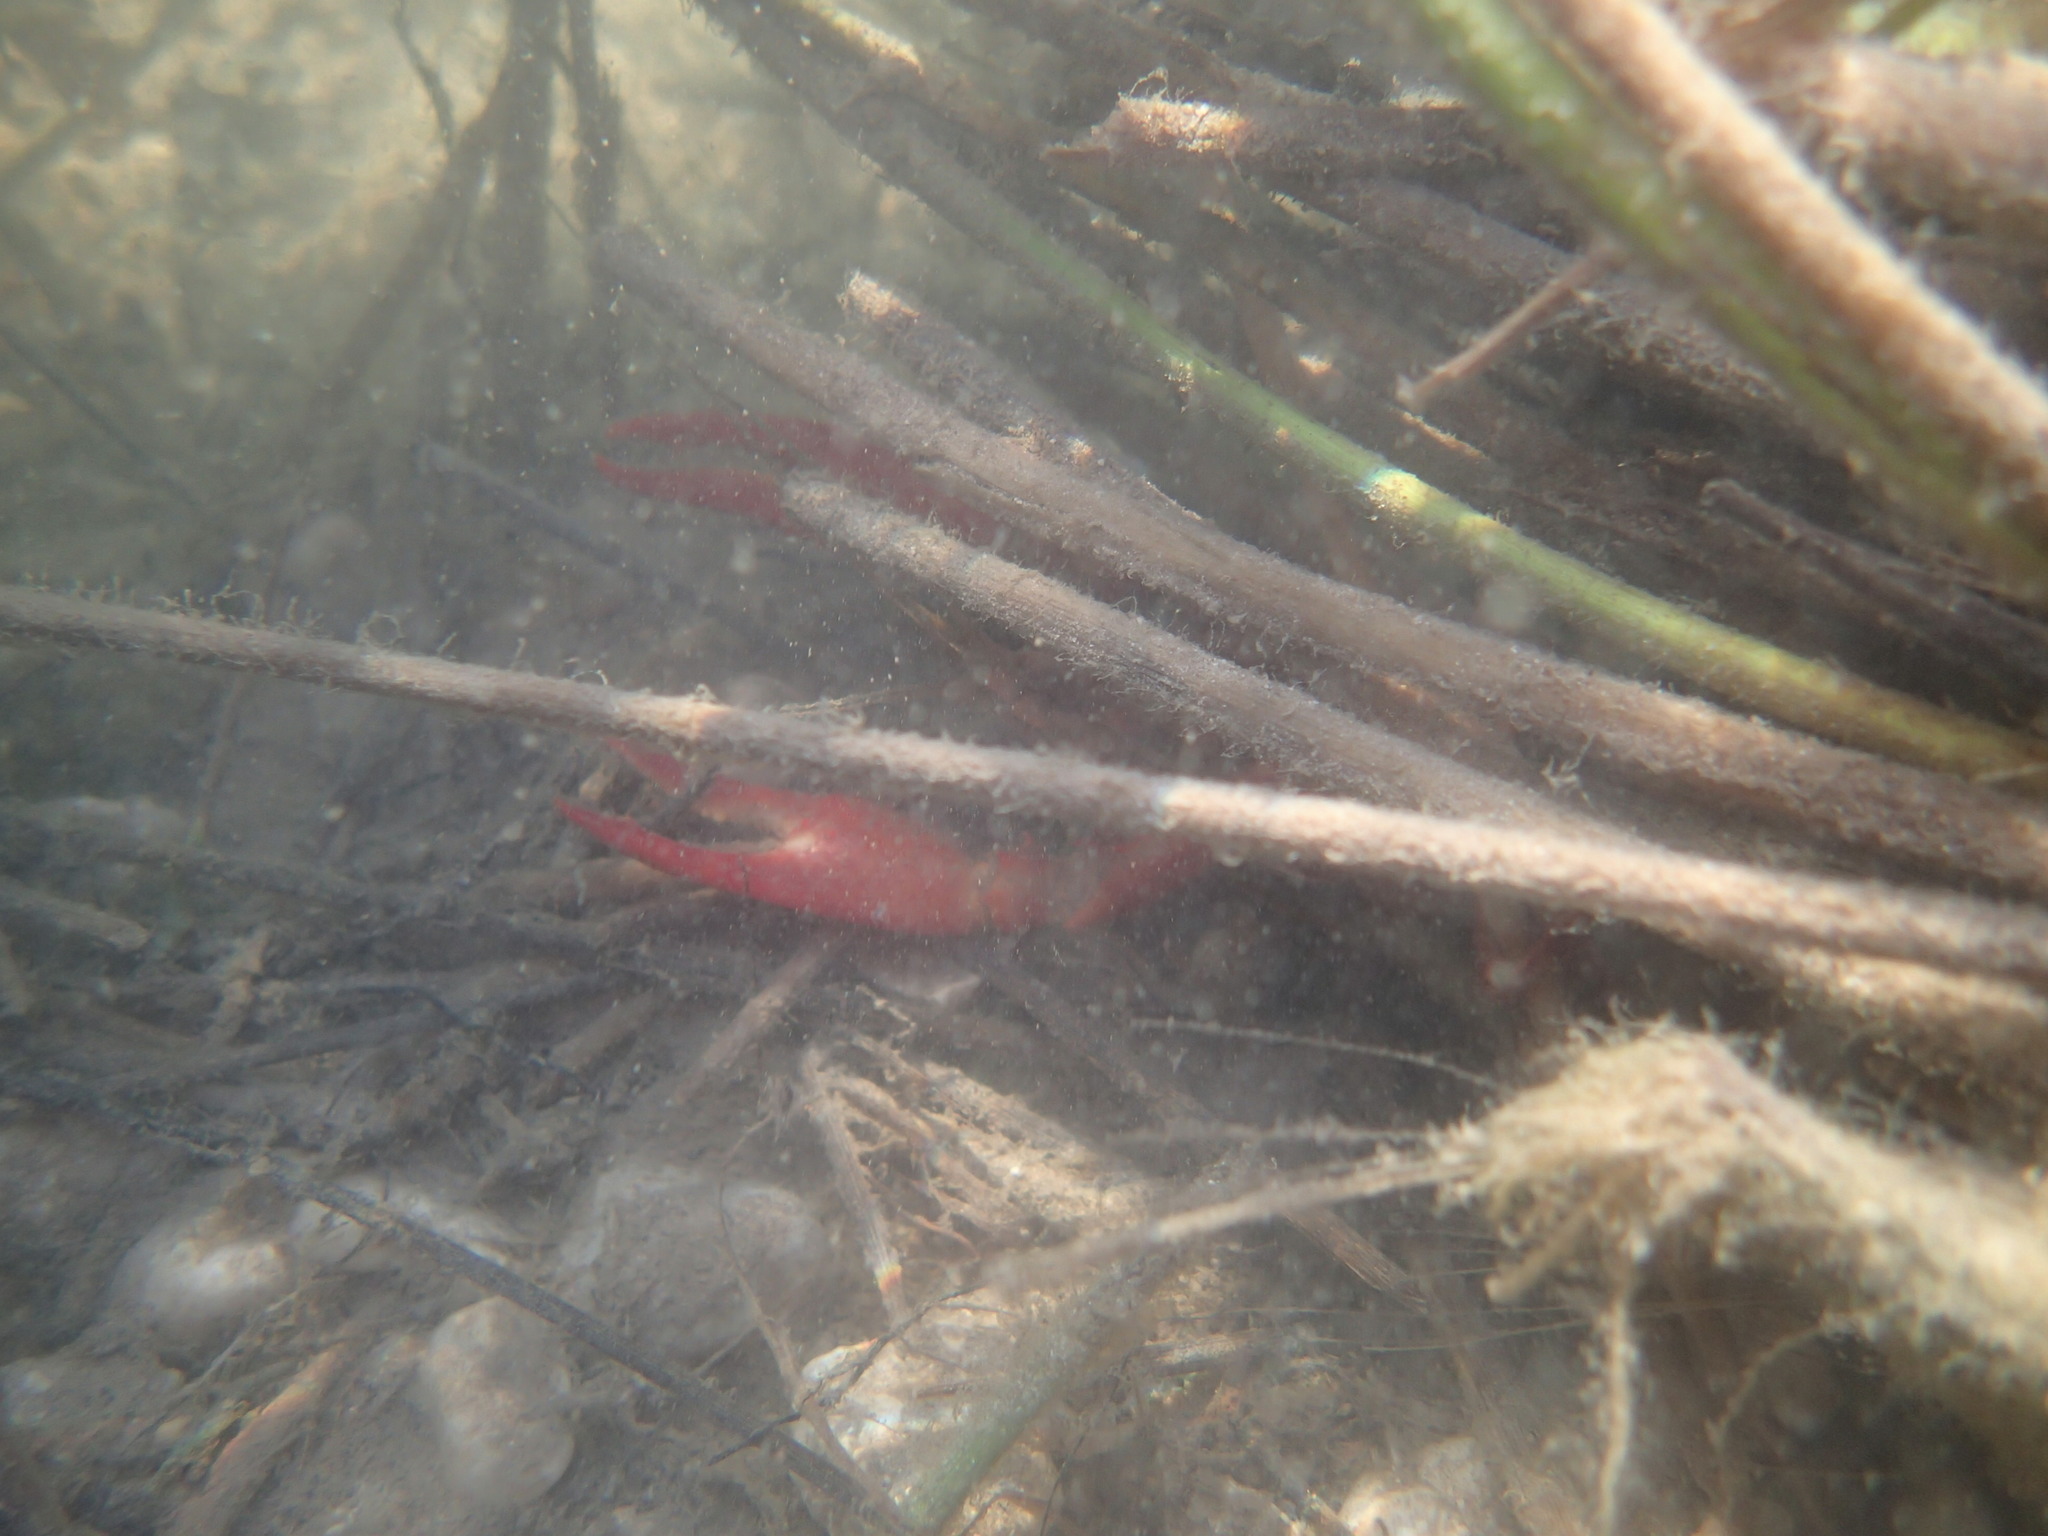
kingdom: Animalia
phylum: Arthropoda
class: Malacostraca
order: Decapoda
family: Cambaridae
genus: Procambarus
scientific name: Procambarus clarkii
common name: Red swamp crayfish
